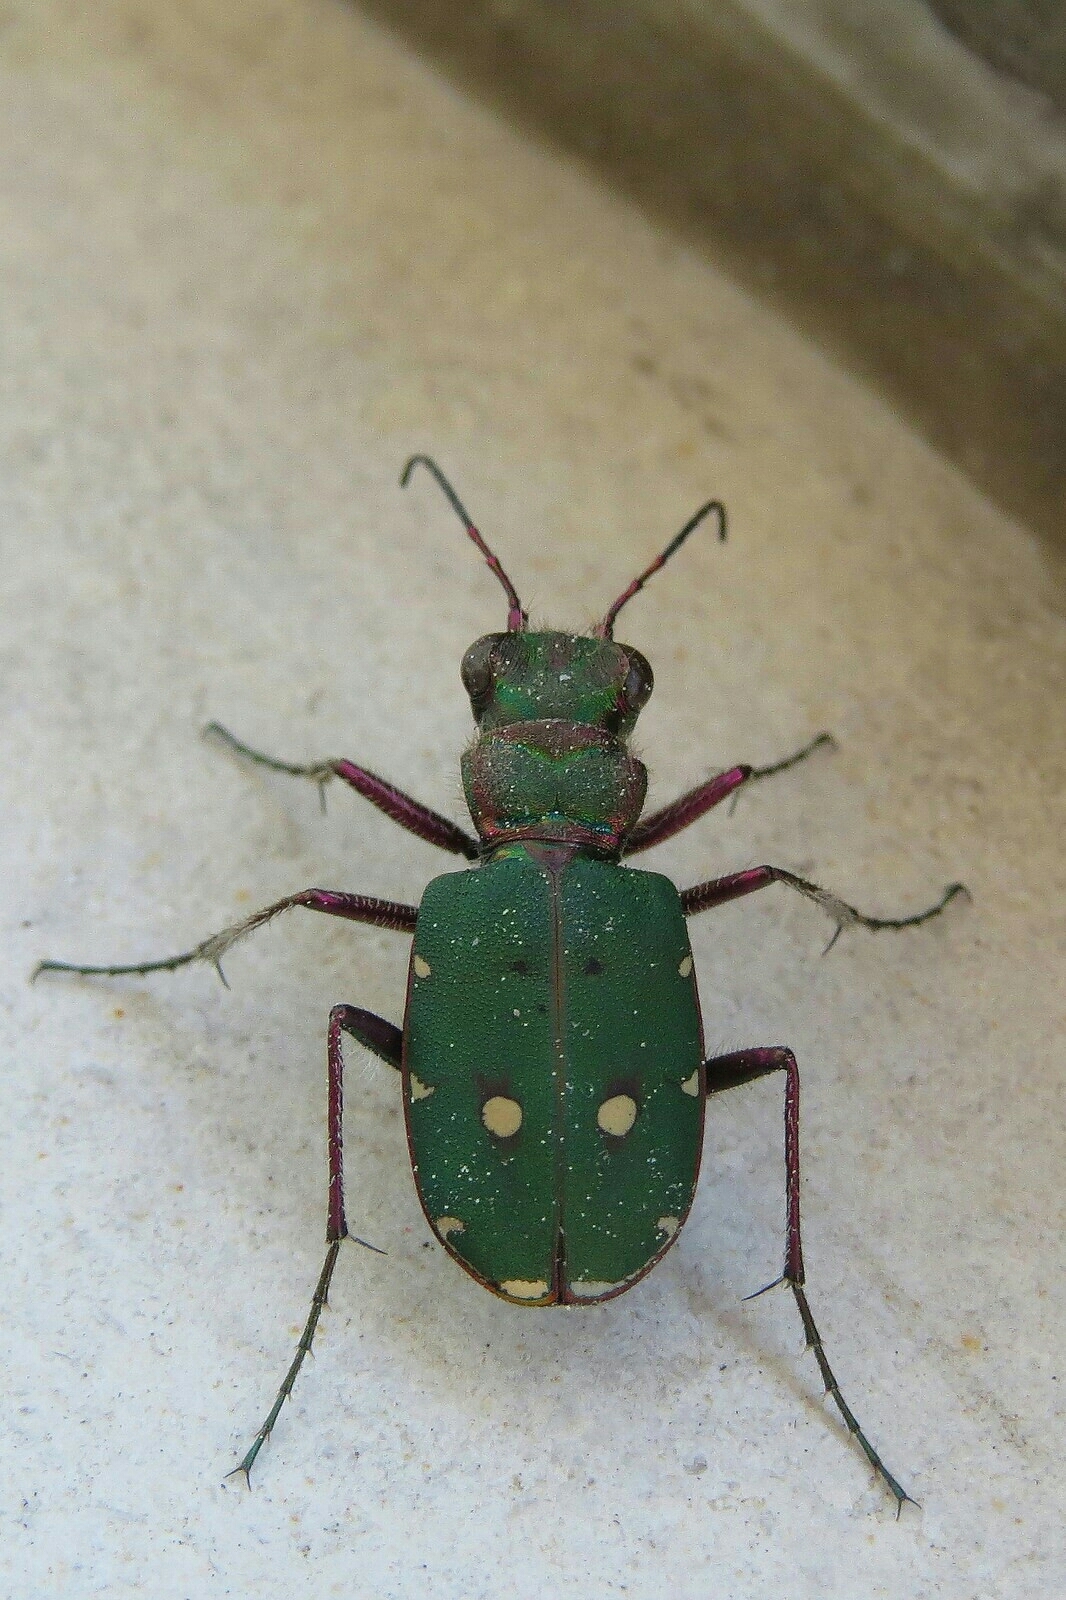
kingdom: Animalia
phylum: Arthropoda
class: Insecta
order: Coleoptera
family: Carabidae
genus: Cicindela
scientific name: Cicindela campestris
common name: Common tiger beetle
